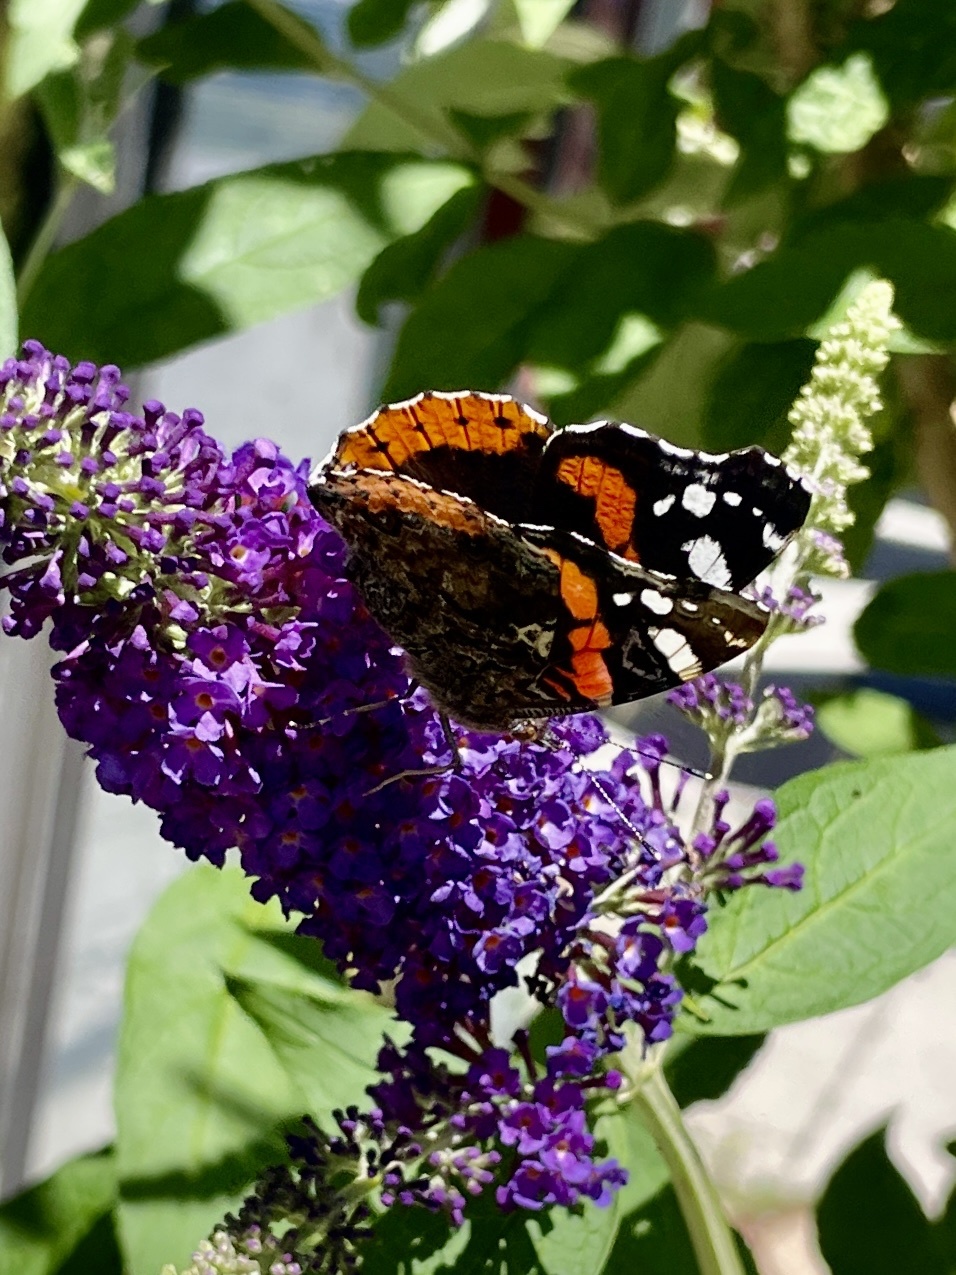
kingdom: Animalia
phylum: Arthropoda
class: Insecta
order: Lepidoptera
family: Nymphalidae
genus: Vanessa
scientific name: Vanessa atalanta
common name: Red admiral
